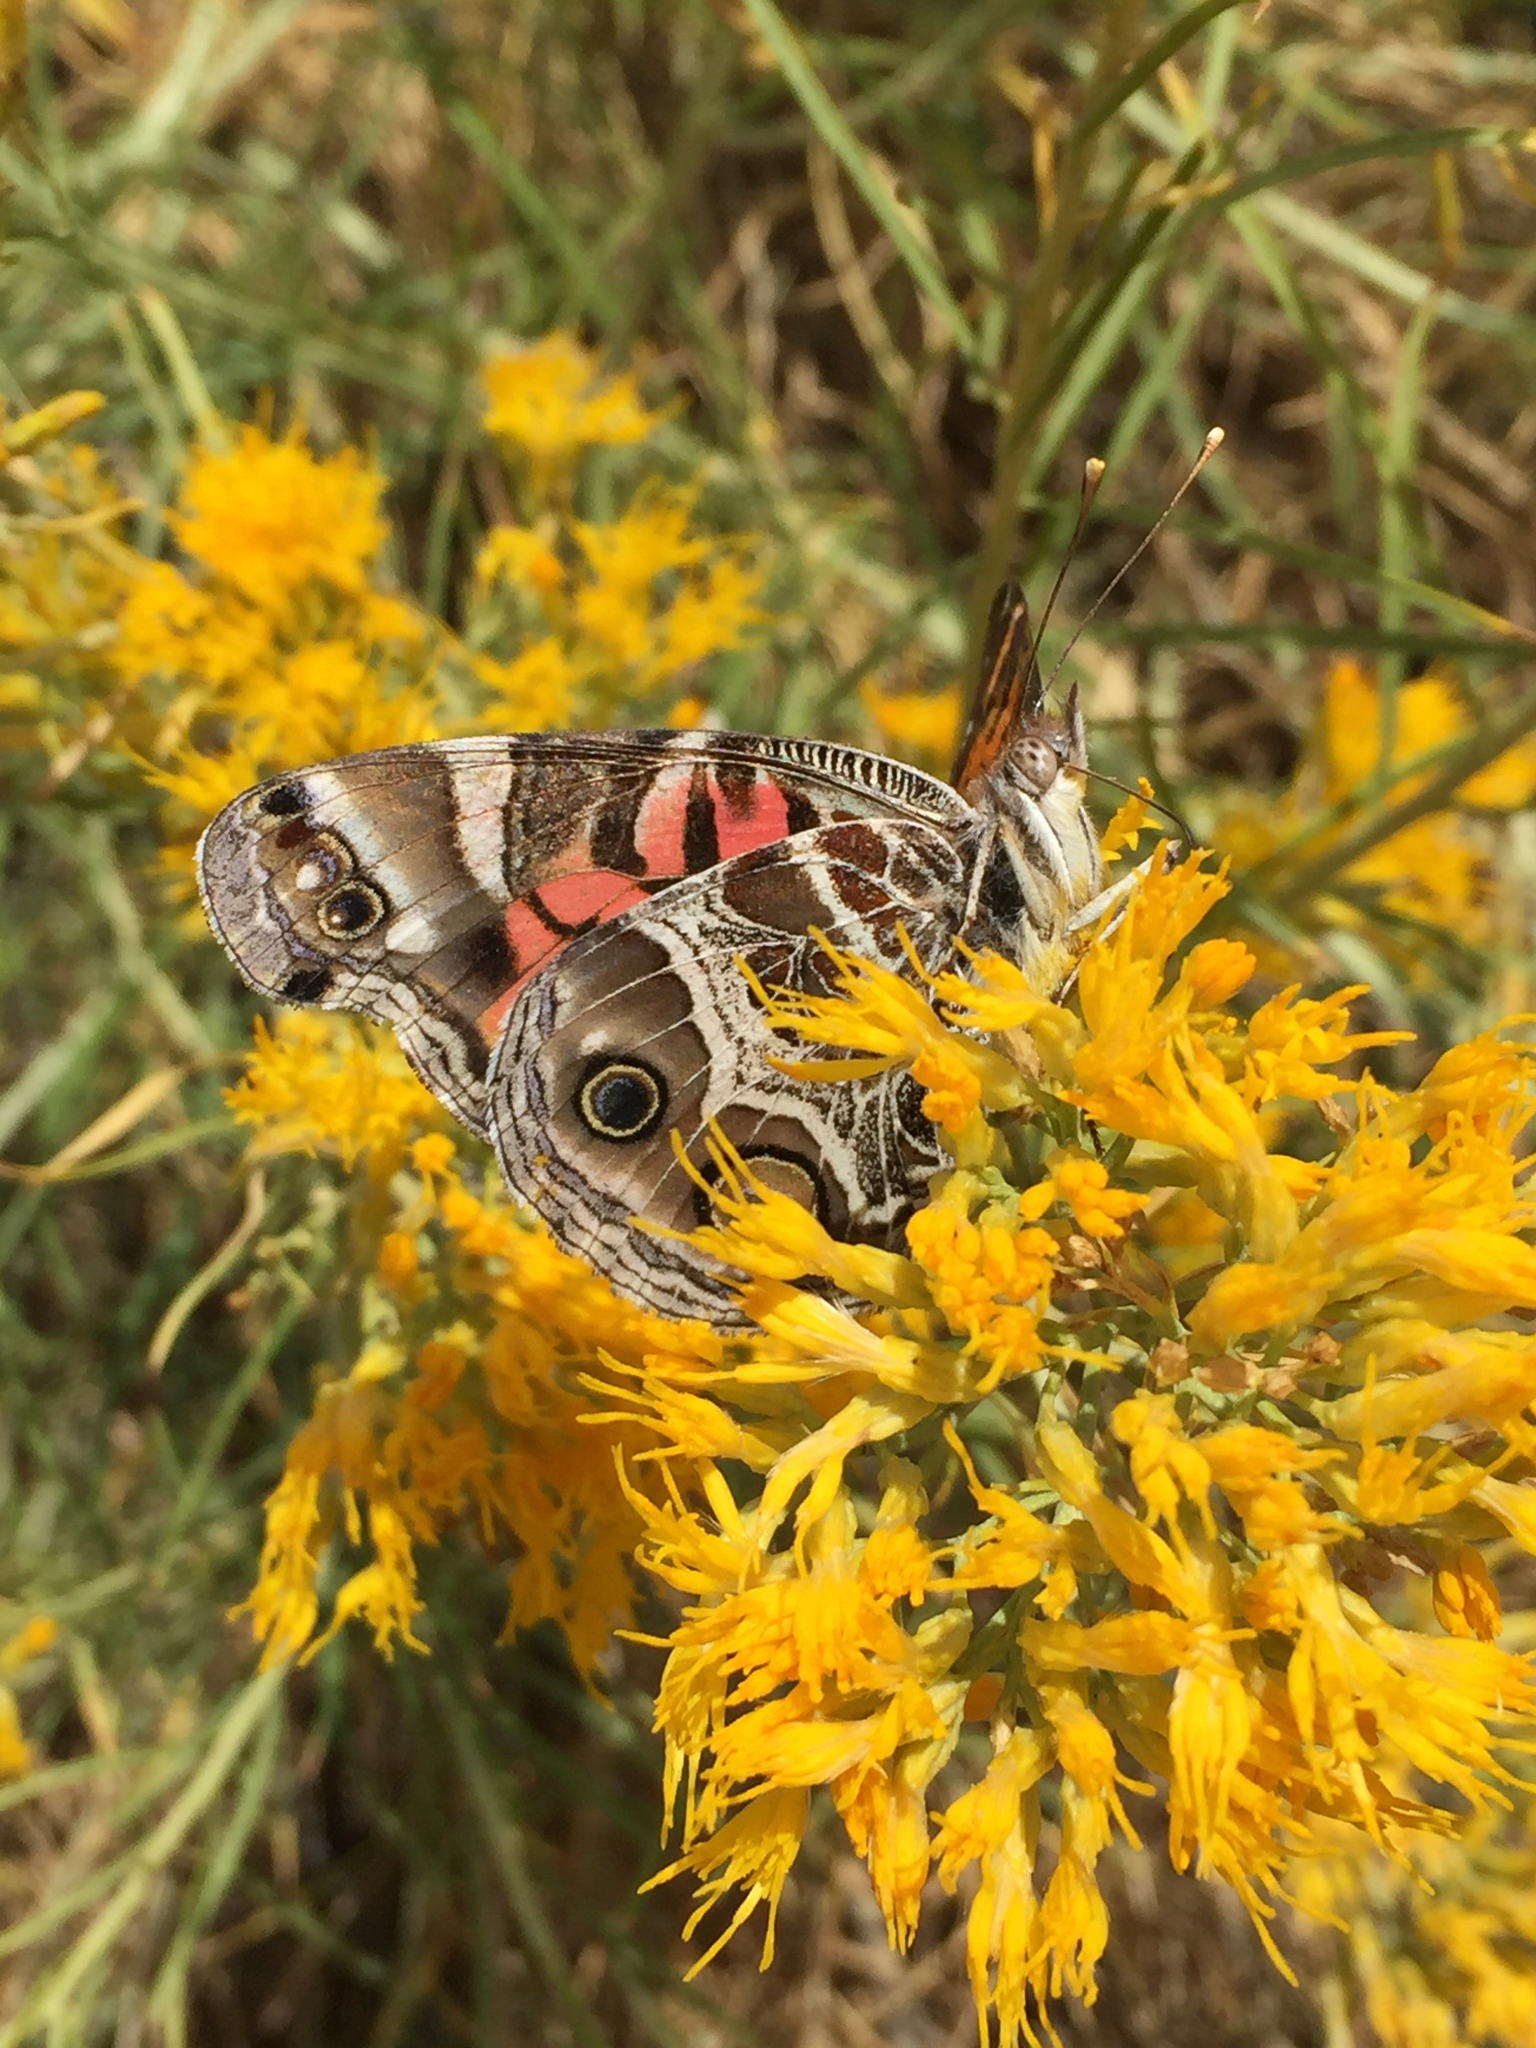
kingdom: Animalia
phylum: Arthropoda
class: Insecta
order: Lepidoptera
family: Nymphalidae
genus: Vanessa
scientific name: Vanessa virginiensis
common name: American lady
